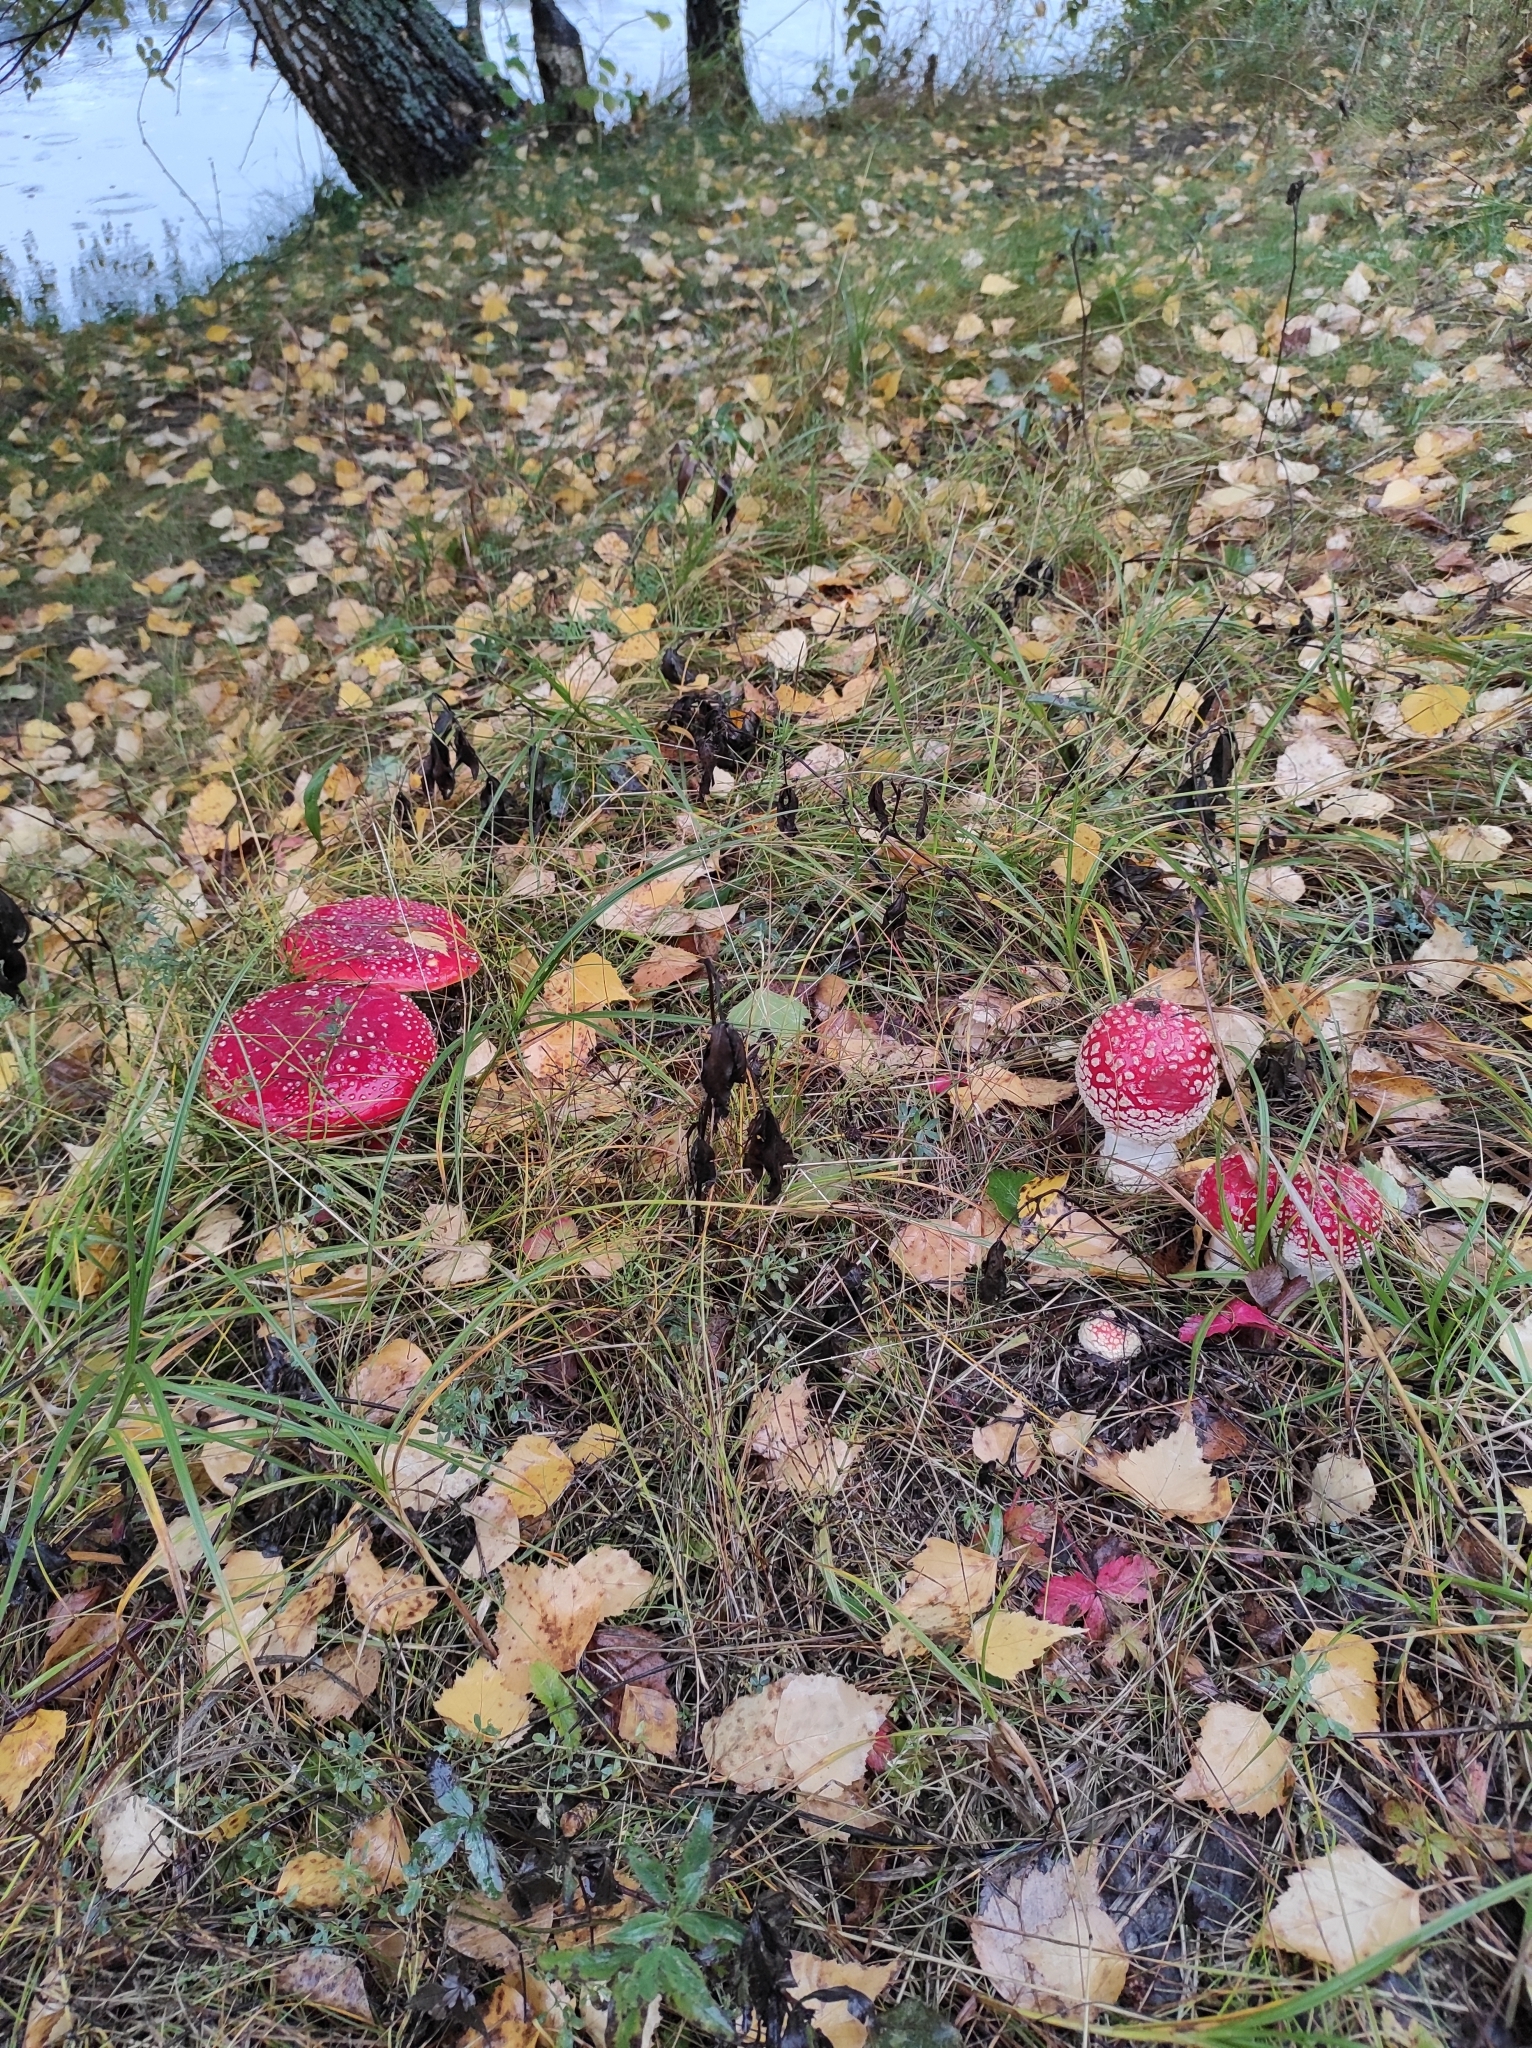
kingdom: Fungi
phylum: Basidiomycota
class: Agaricomycetes
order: Agaricales
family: Amanitaceae
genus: Amanita
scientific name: Amanita muscaria
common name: Fly agaric
